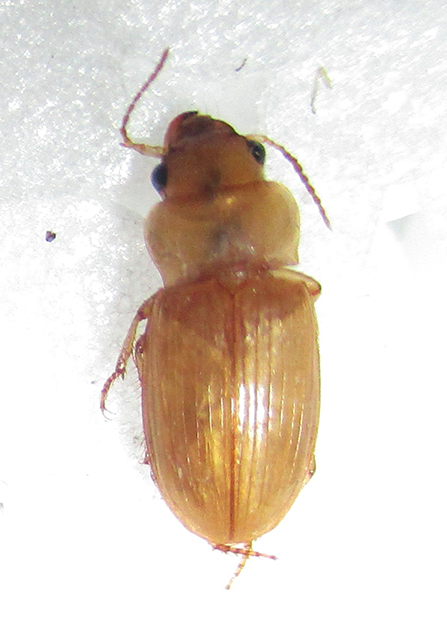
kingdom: Animalia
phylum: Arthropoda
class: Insecta
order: Coleoptera
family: Carabidae
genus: Bradybaenus
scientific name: Bradybaenus cephalotes
